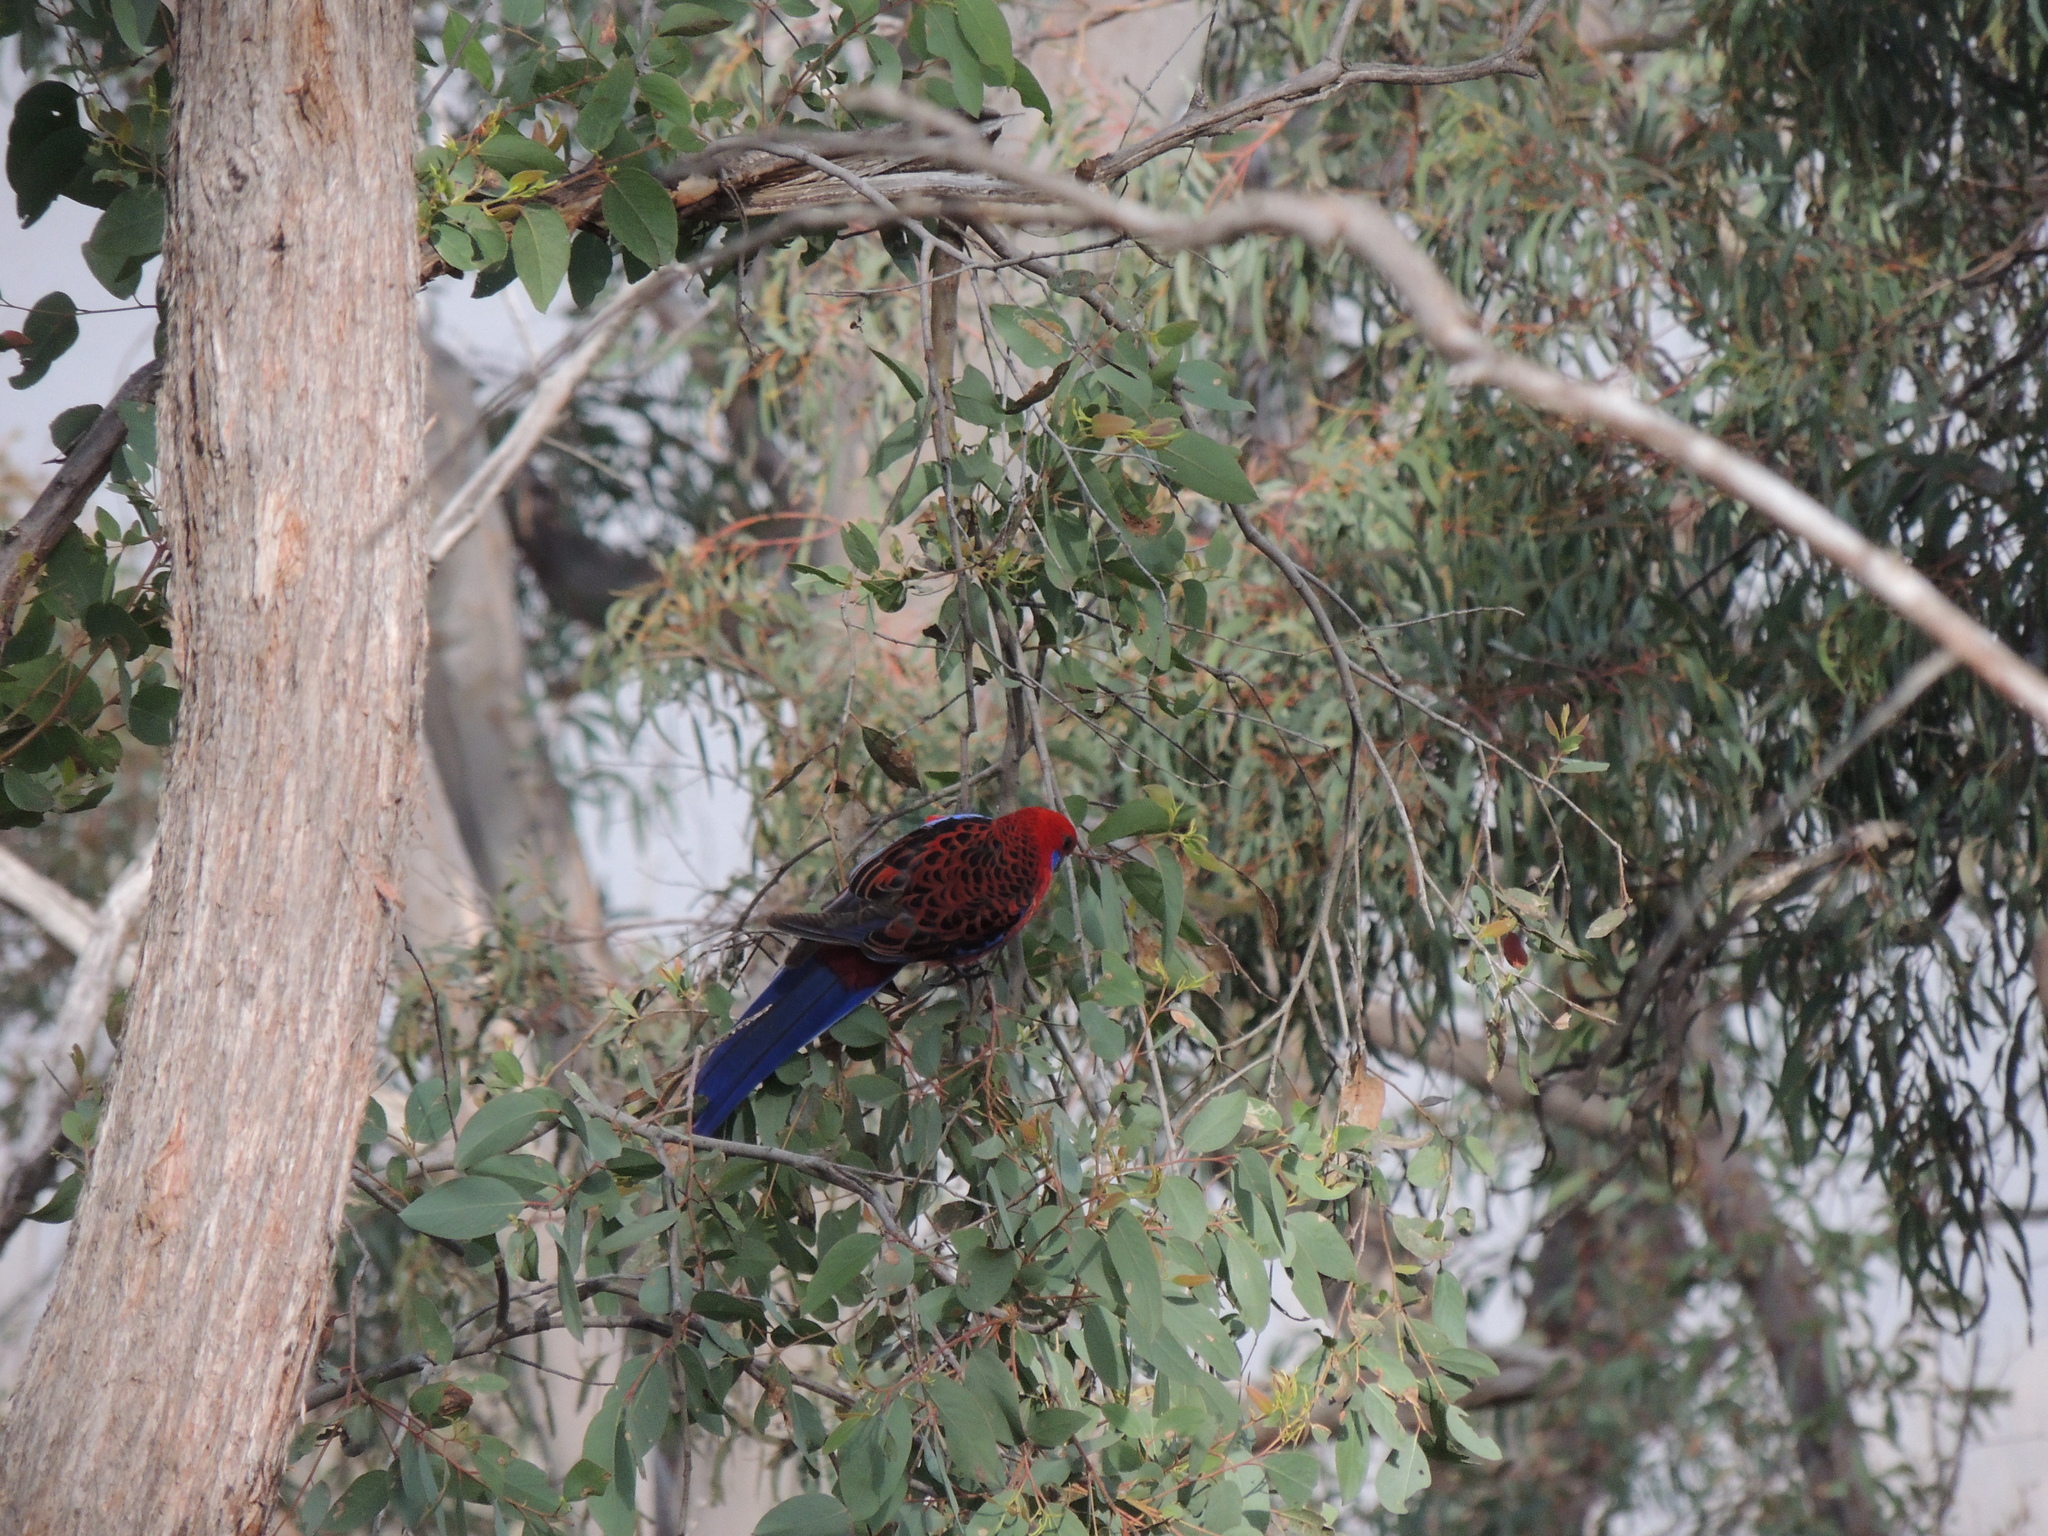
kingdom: Animalia
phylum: Chordata
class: Aves
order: Psittaciformes
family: Psittacidae
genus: Platycercus
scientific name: Platycercus elegans
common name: Crimson rosella
